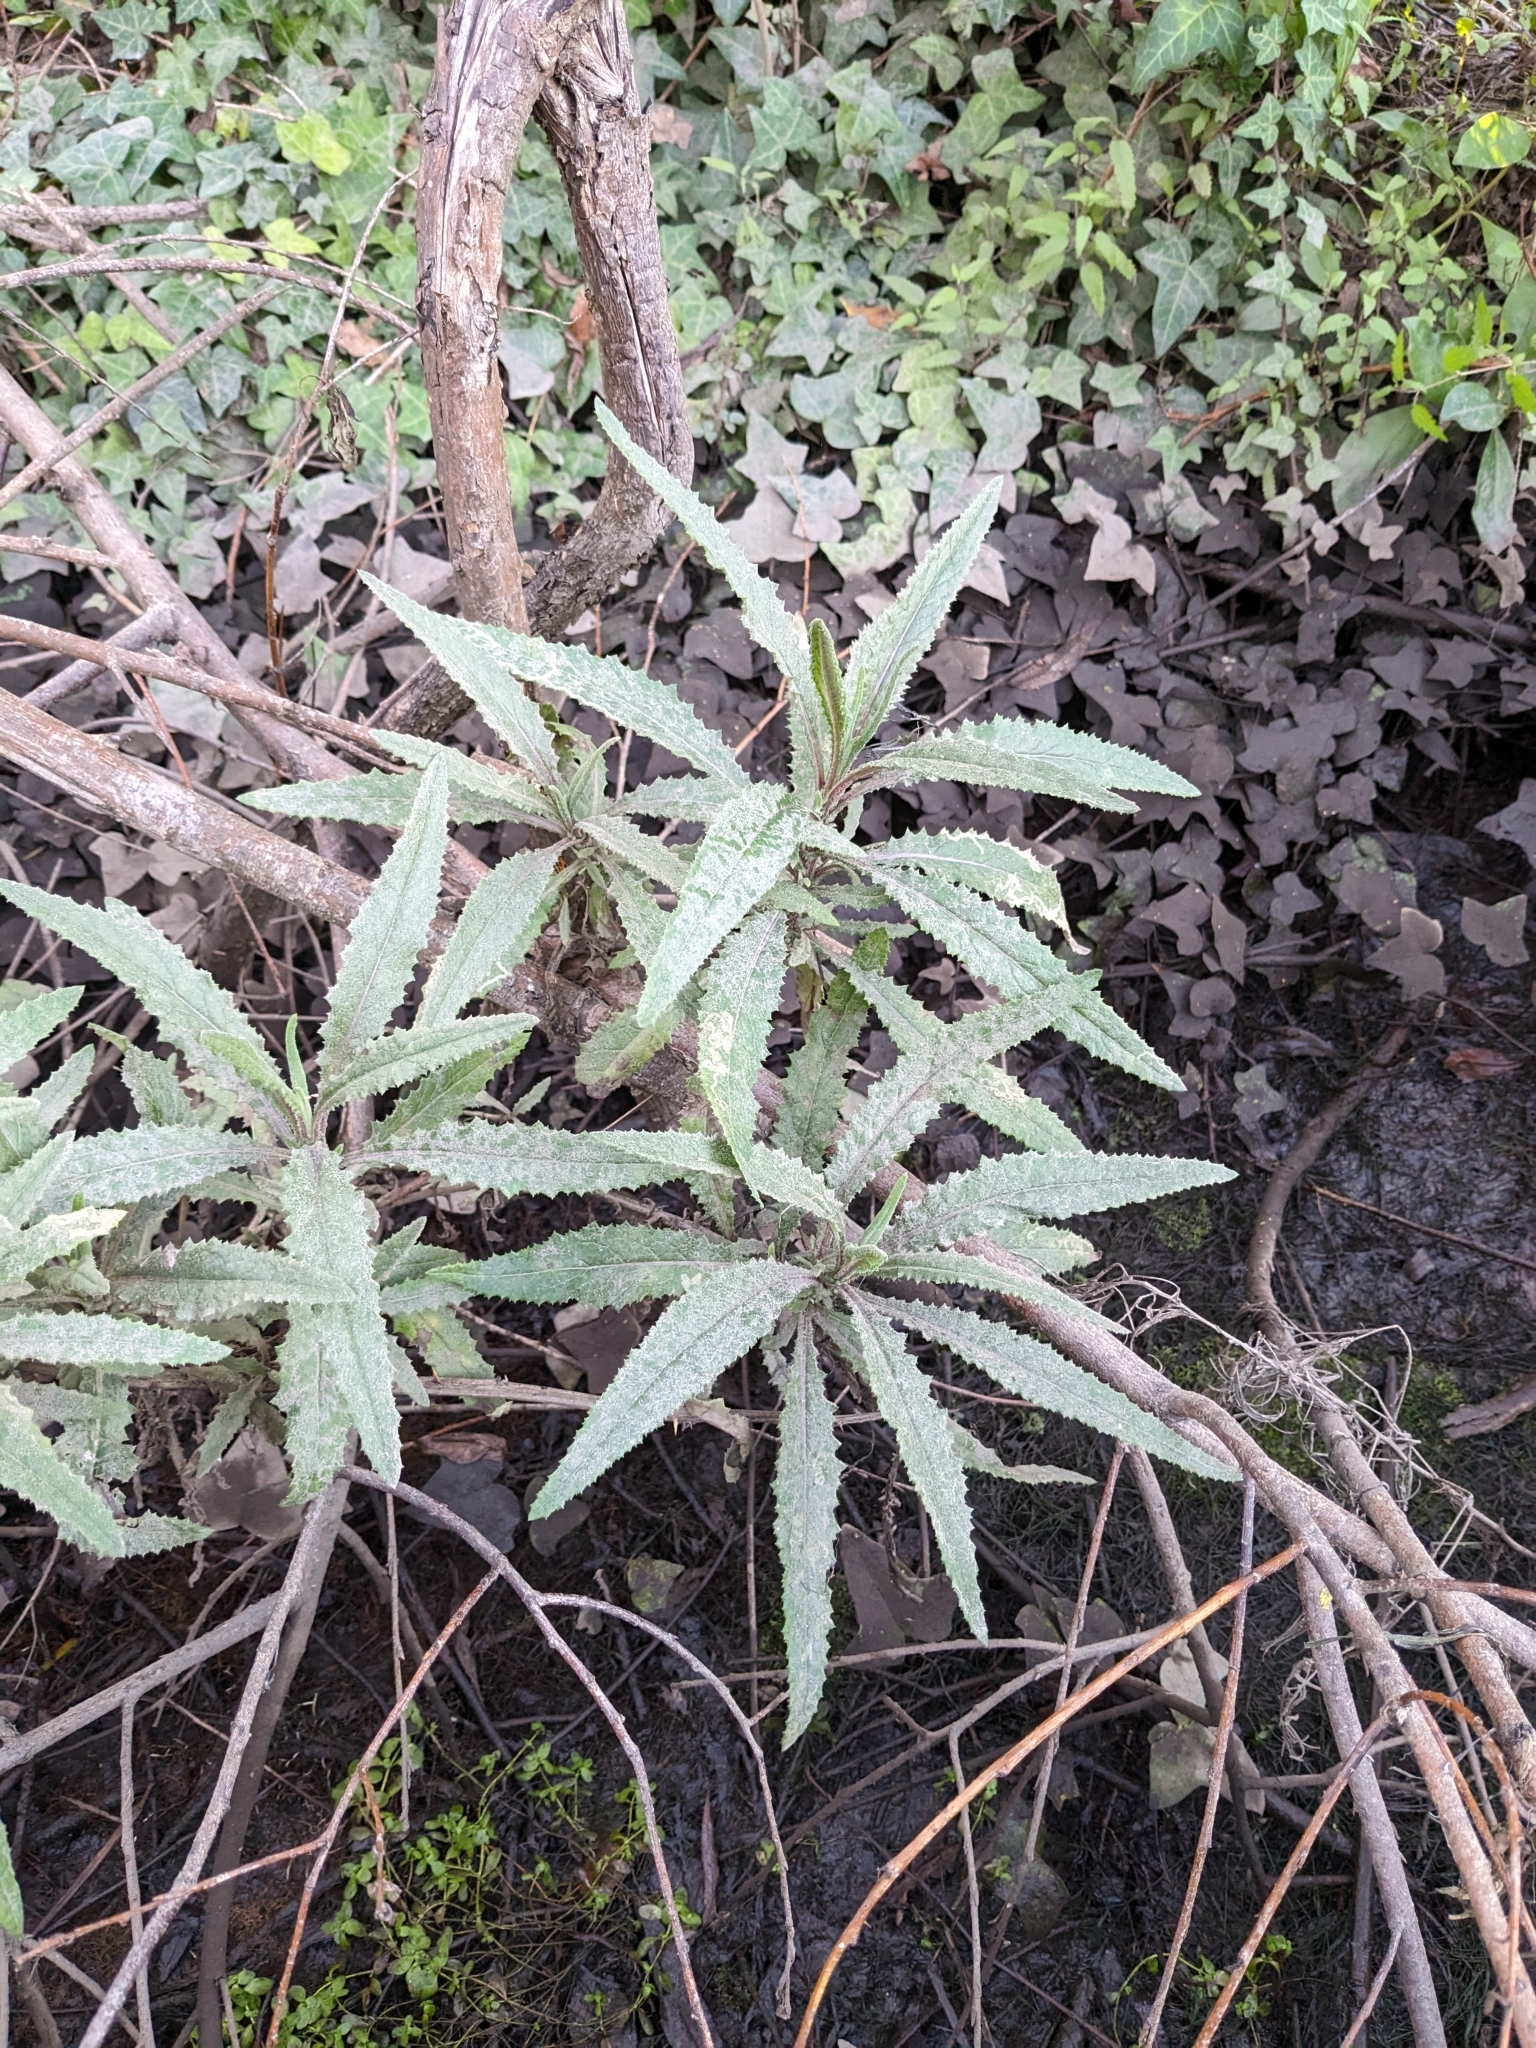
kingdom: Plantae
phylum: Tracheophyta
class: Magnoliopsida
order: Asterales
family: Asteraceae
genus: Senecio
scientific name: Senecio minimus
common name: Toothed fireweed
